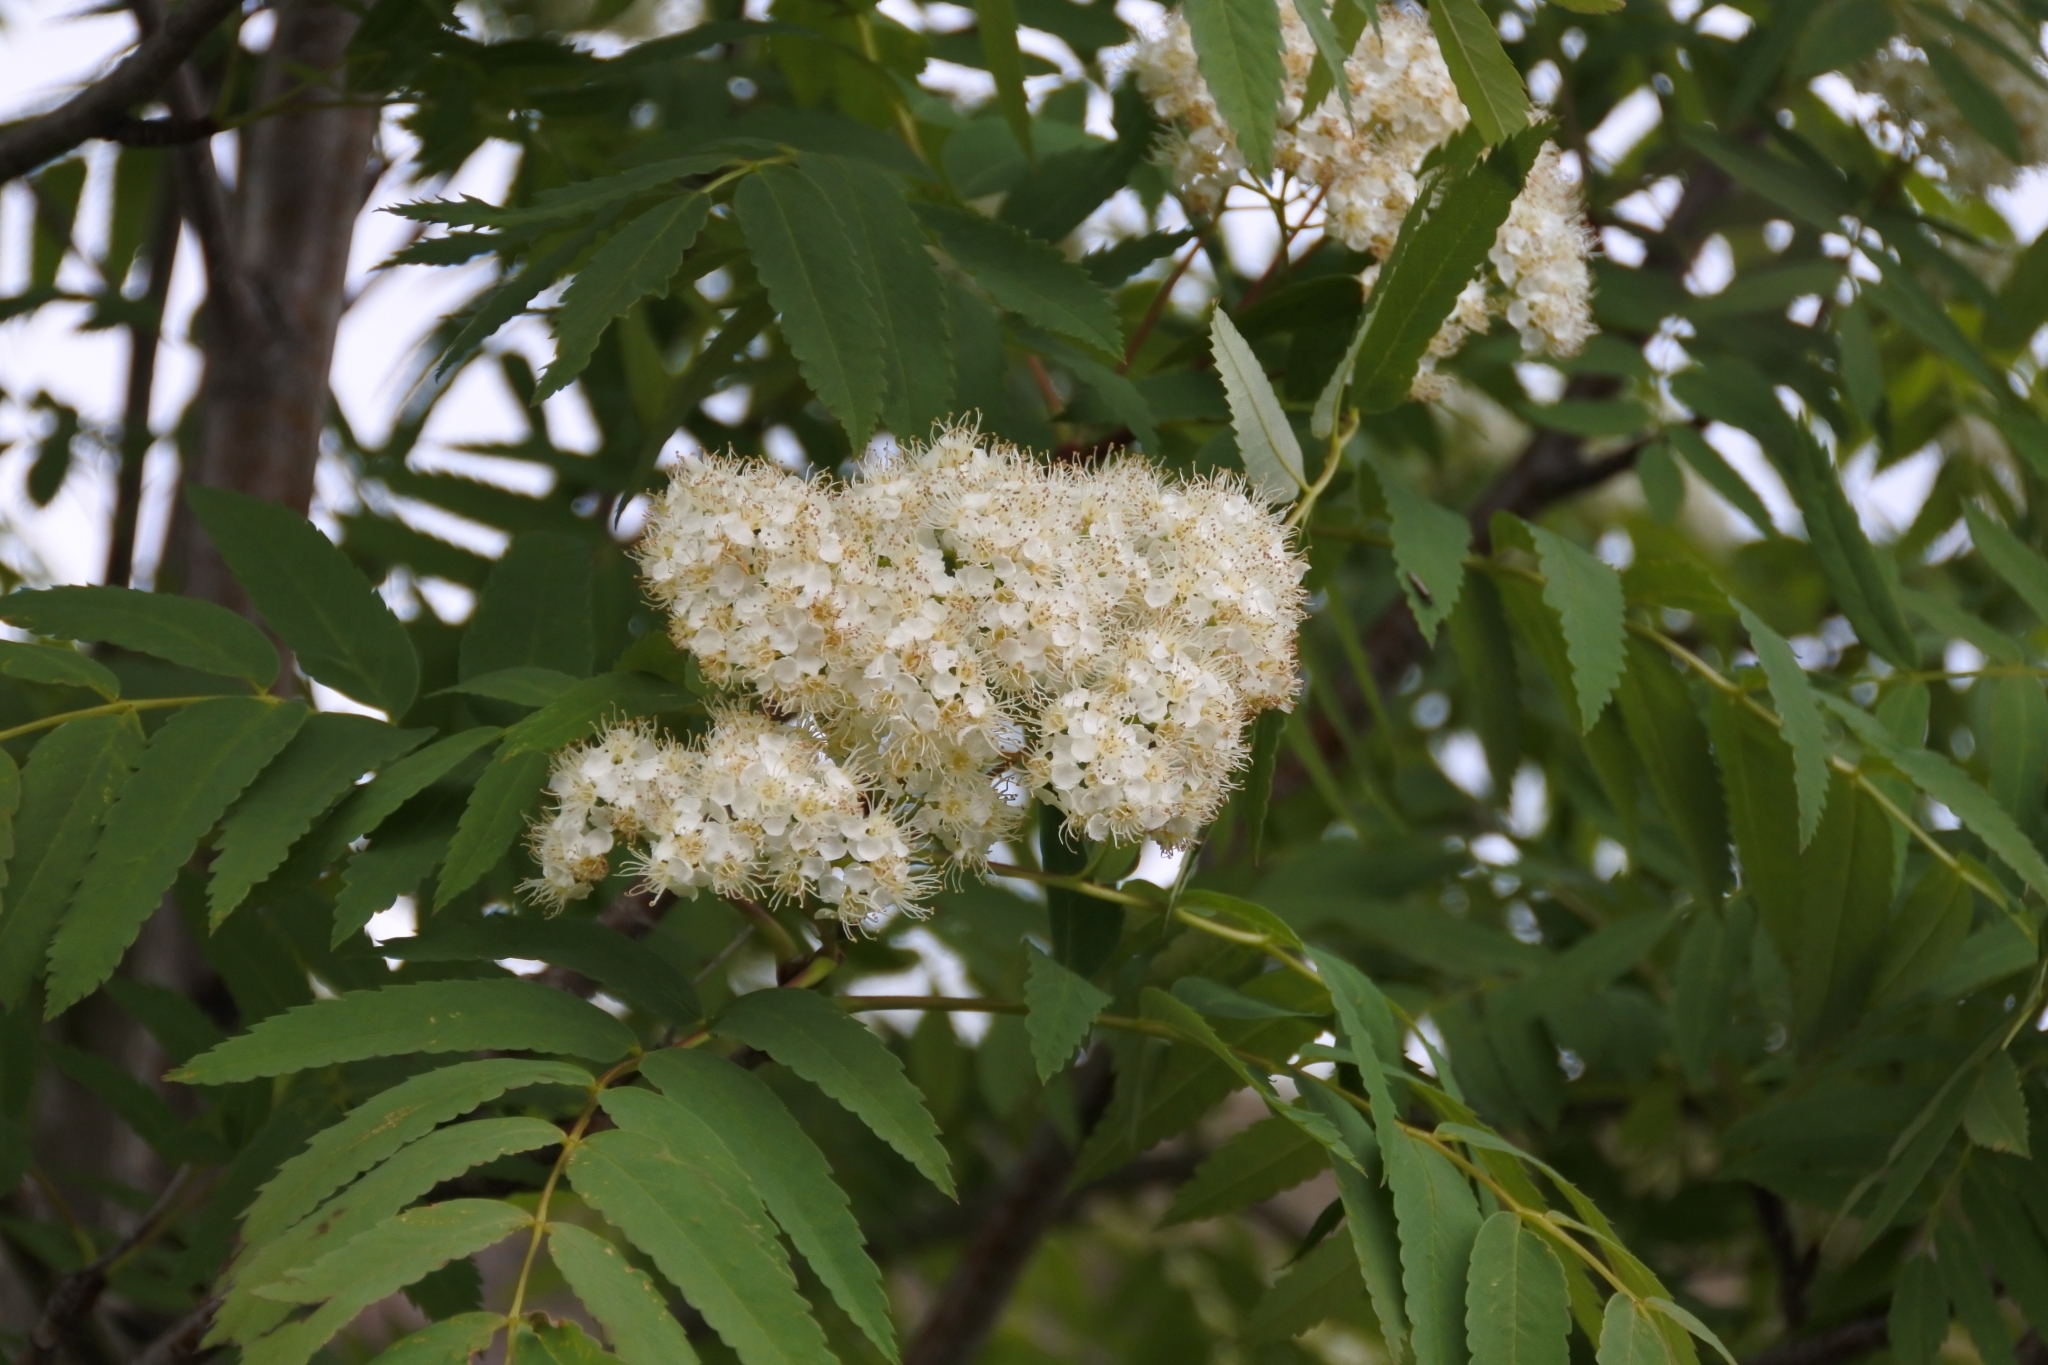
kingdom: Plantae
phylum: Tracheophyta
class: Magnoliopsida
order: Rosales
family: Rosaceae
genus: Sorbus
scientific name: Sorbus aucuparia
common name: Rowan
